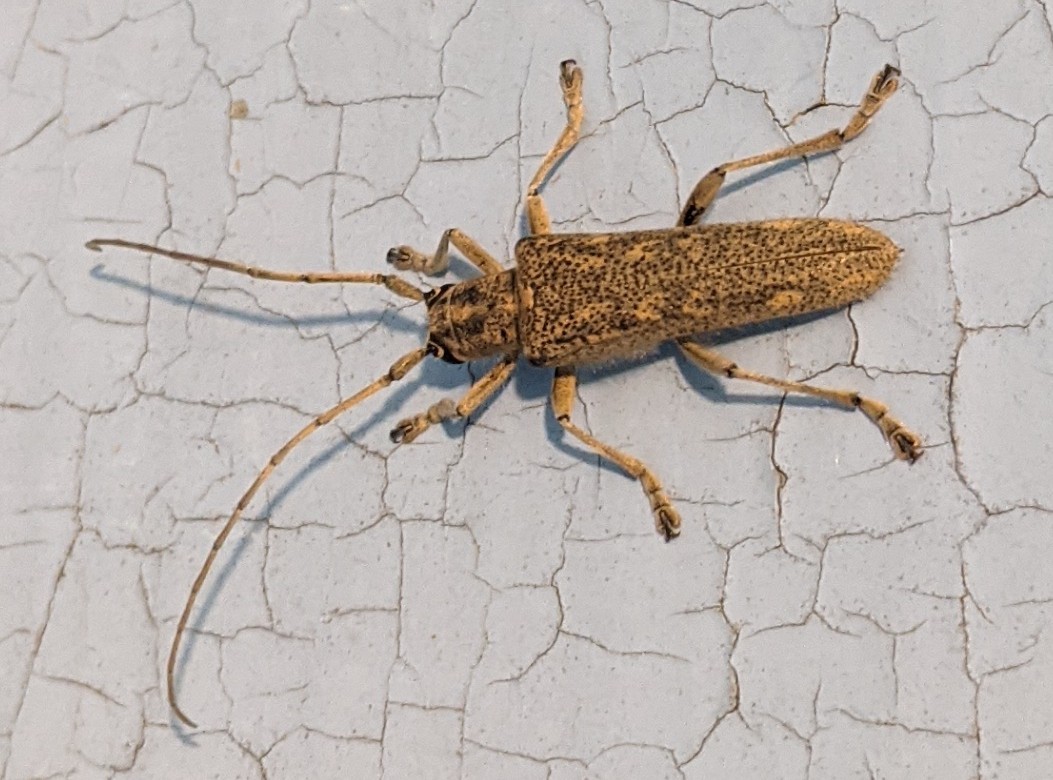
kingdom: Animalia
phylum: Arthropoda
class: Insecta
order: Coleoptera
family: Cerambycidae
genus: Saperda
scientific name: Saperda calcarata
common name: Poplar borer
